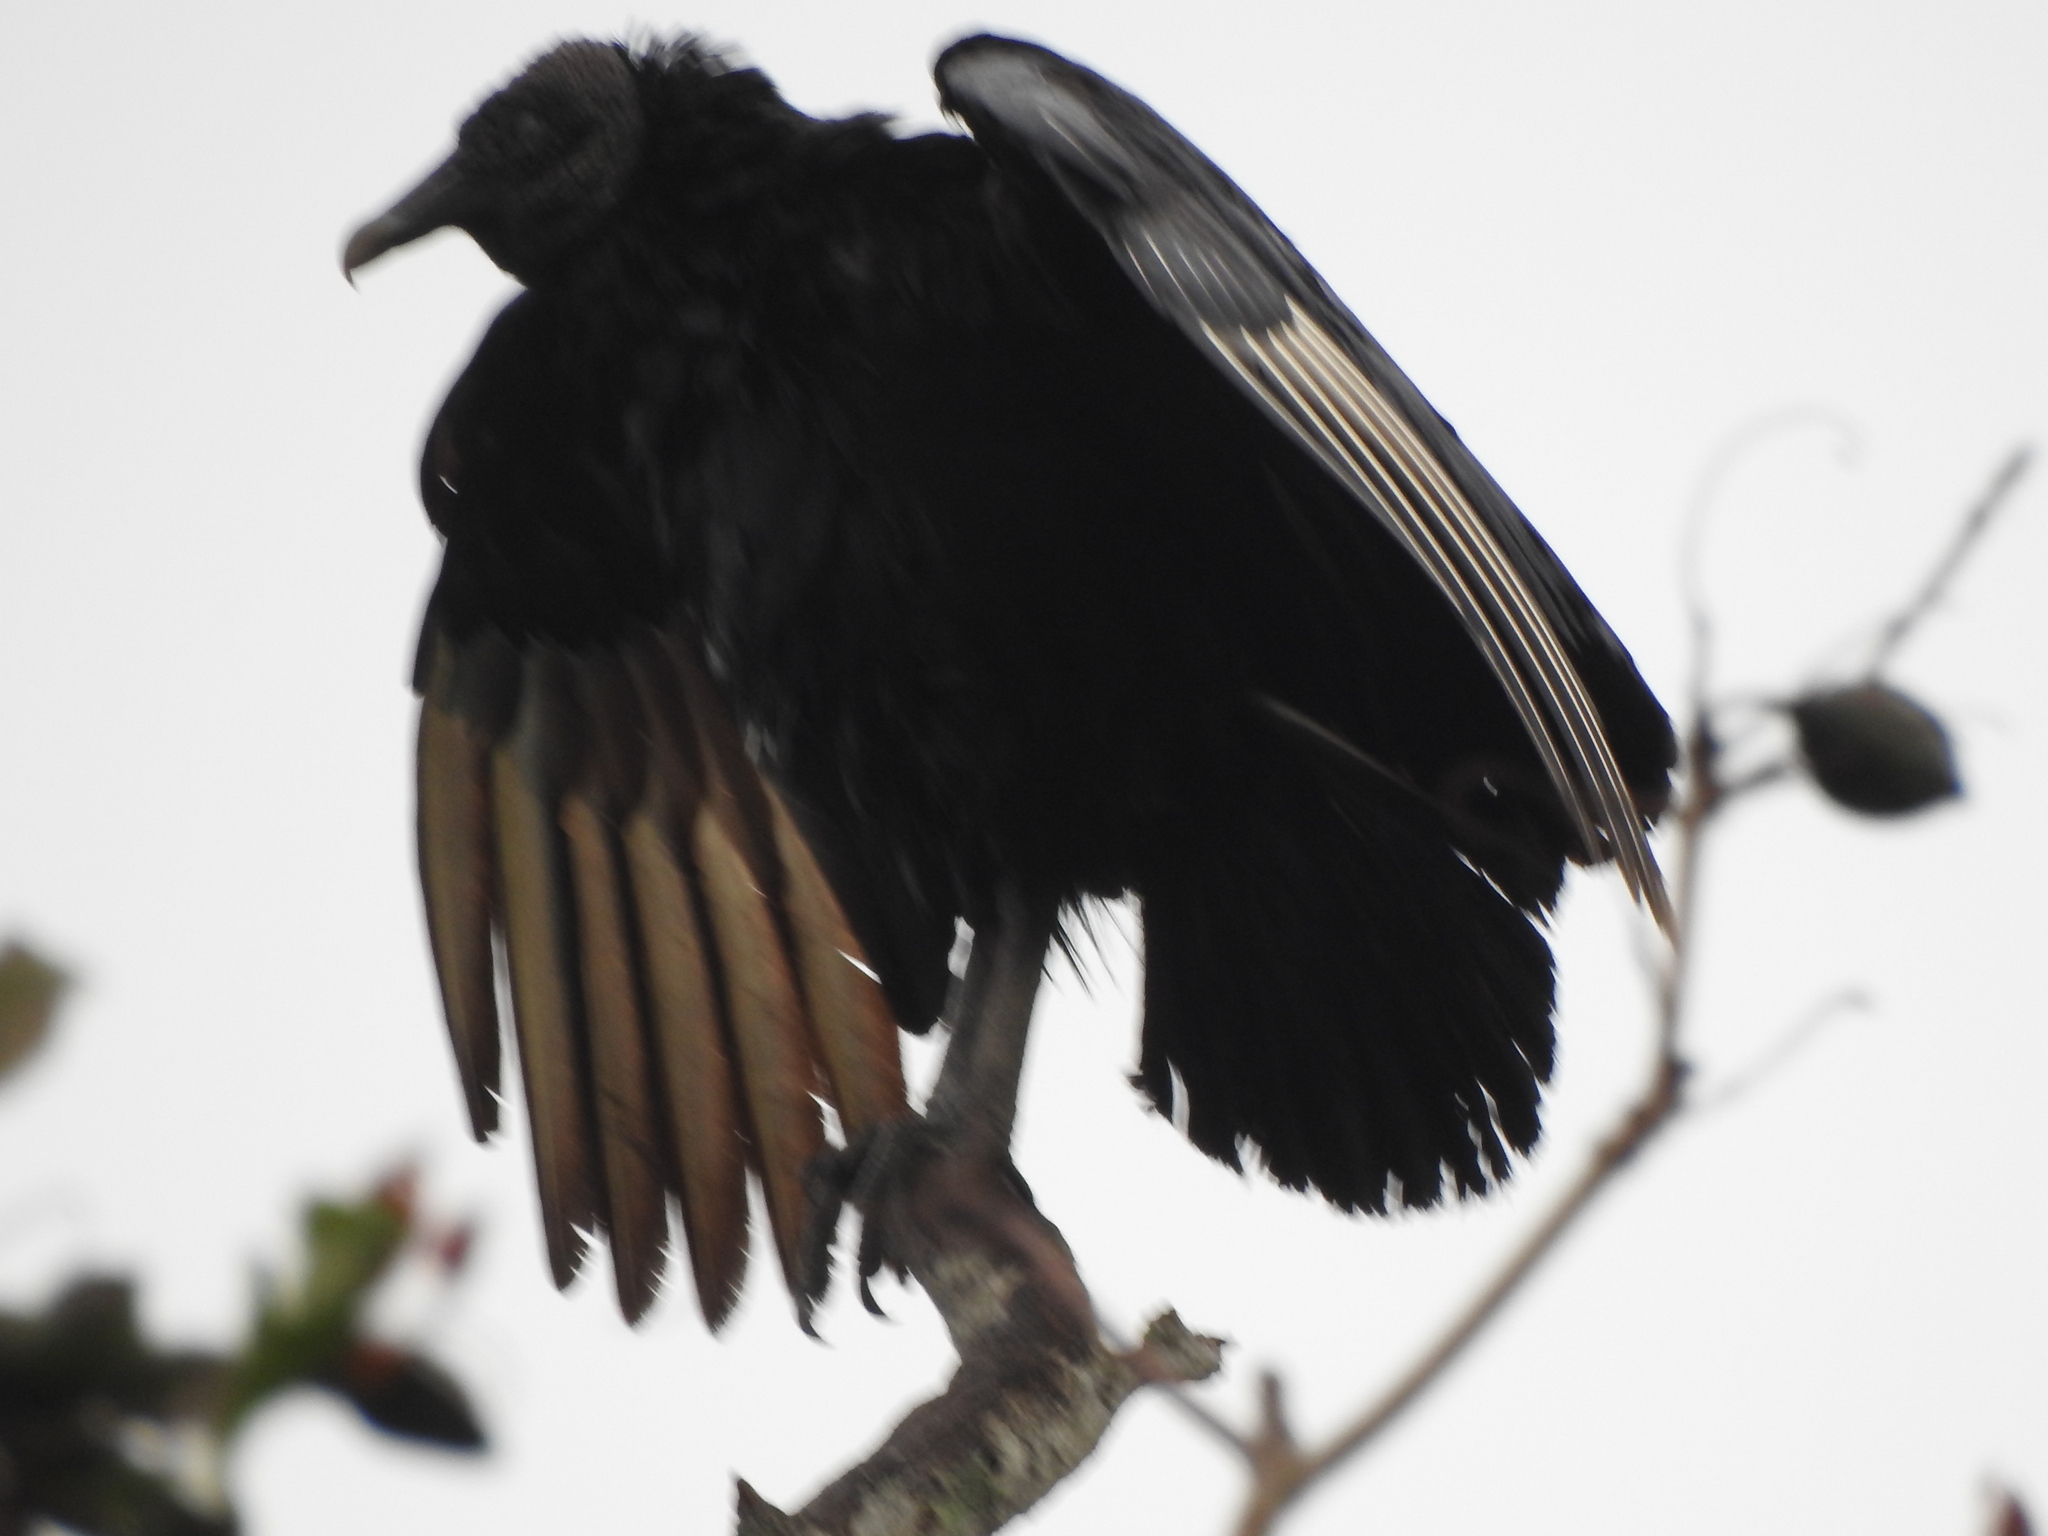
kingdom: Animalia
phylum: Chordata
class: Aves
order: Accipitriformes
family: Cathartidae
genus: Coragyps
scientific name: Coragyps atratus
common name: Black vulture
